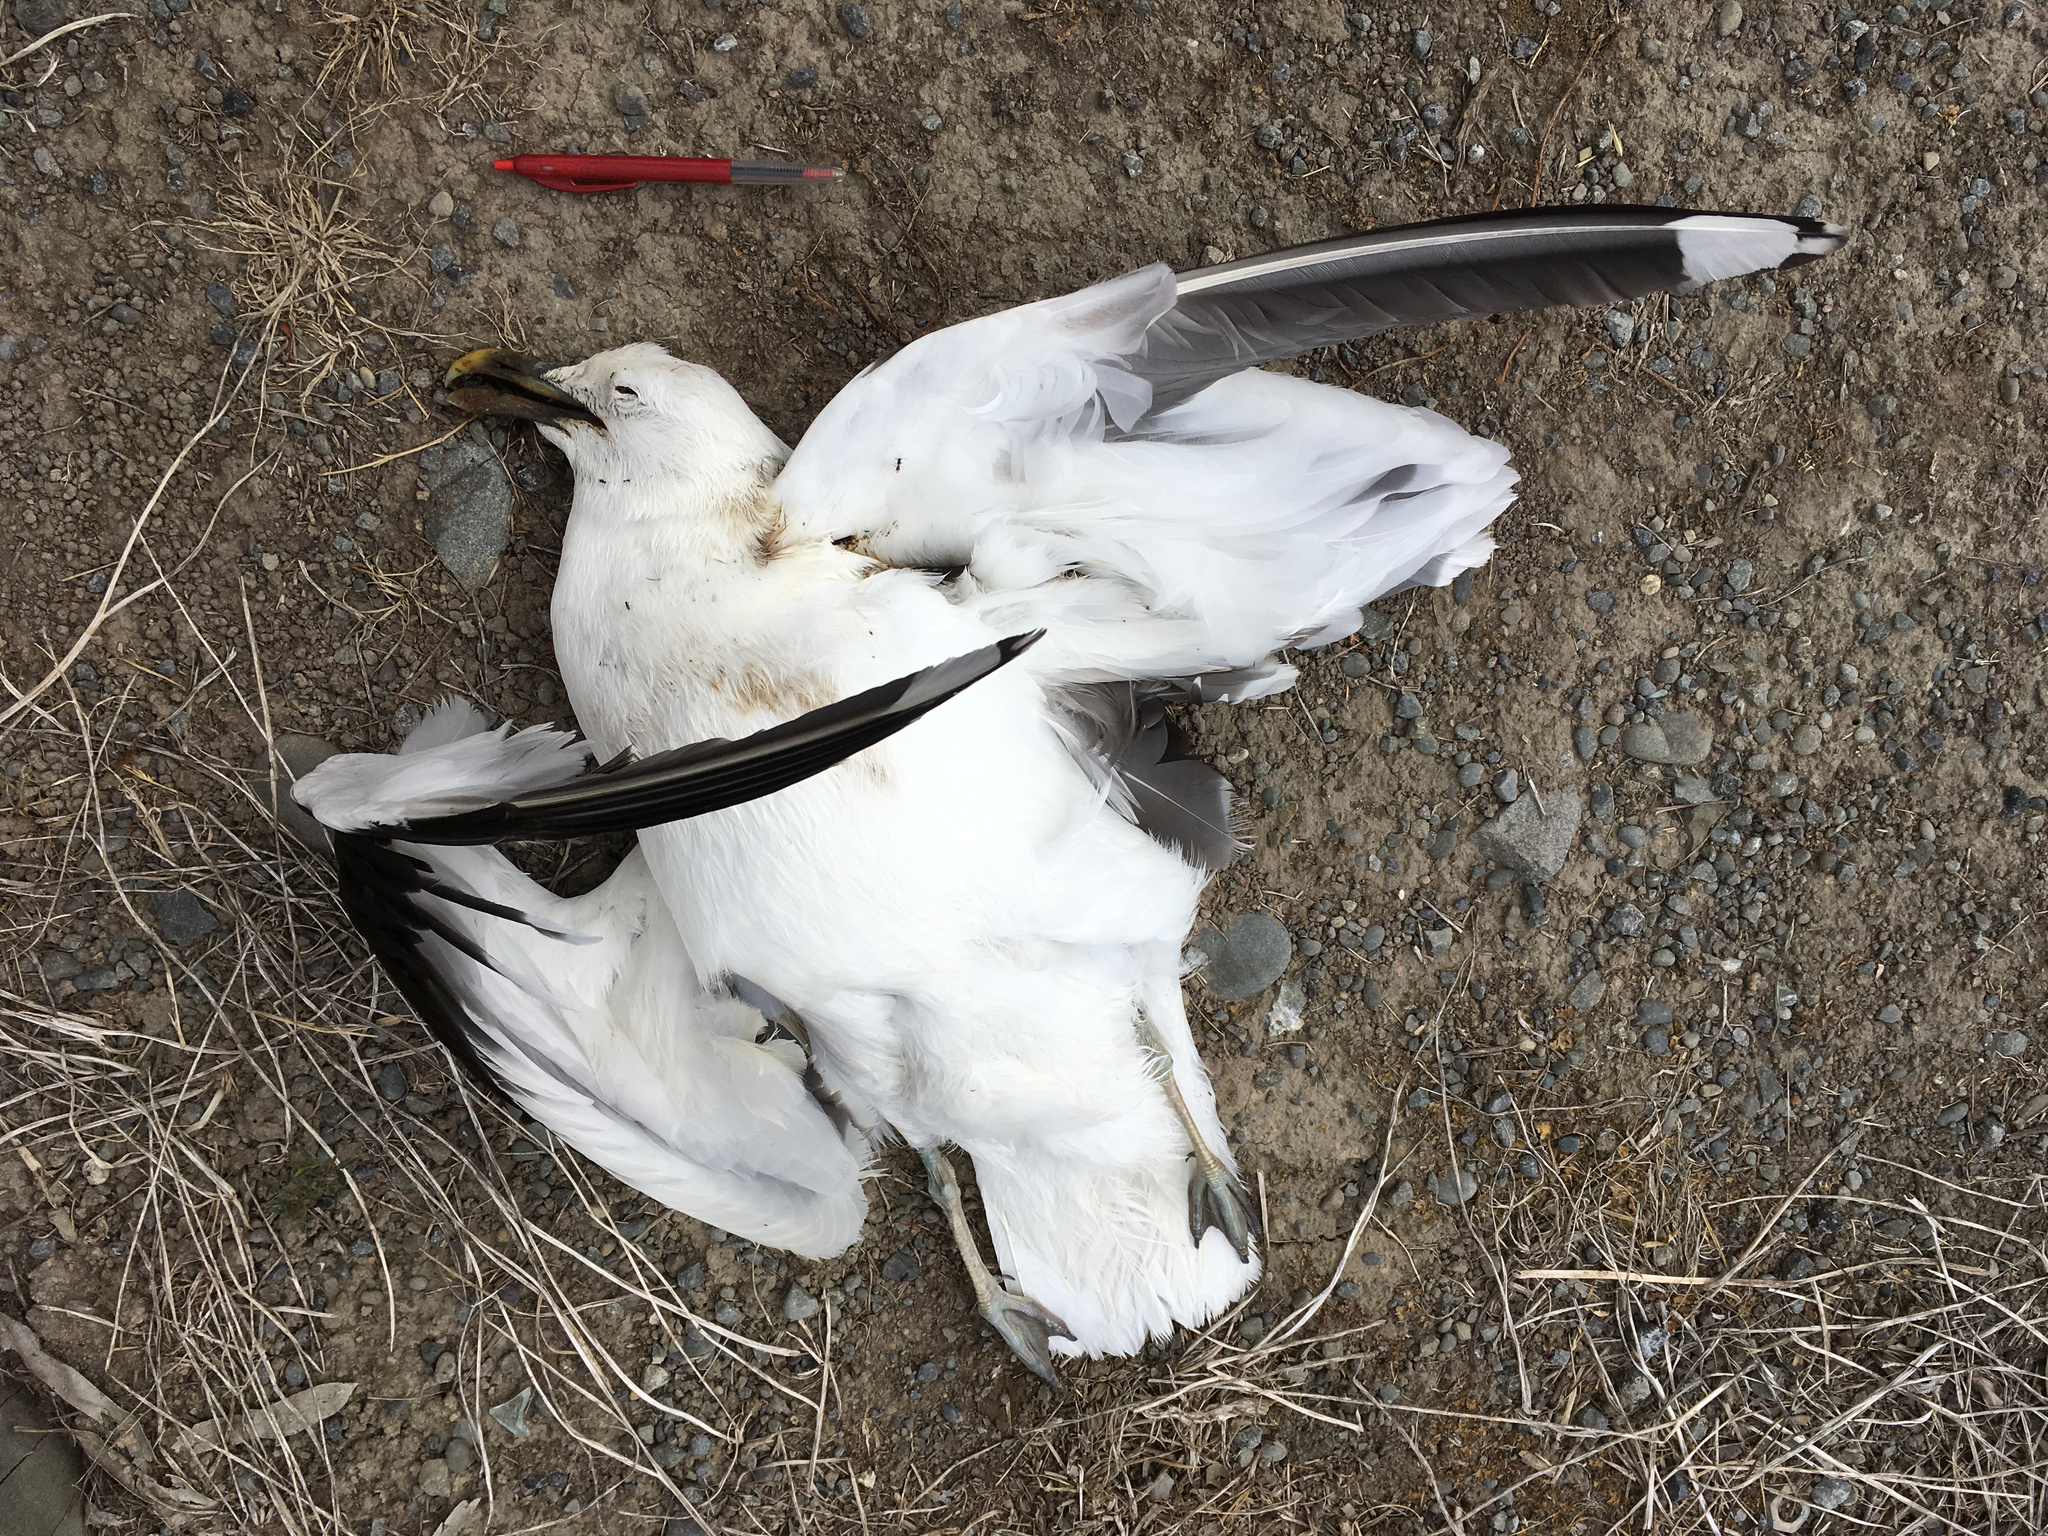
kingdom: Animalia
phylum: Chordata
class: Aves
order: Charadriiformes
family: Laridae
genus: Larus
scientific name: Larus dominicanus
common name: Kelp gull
